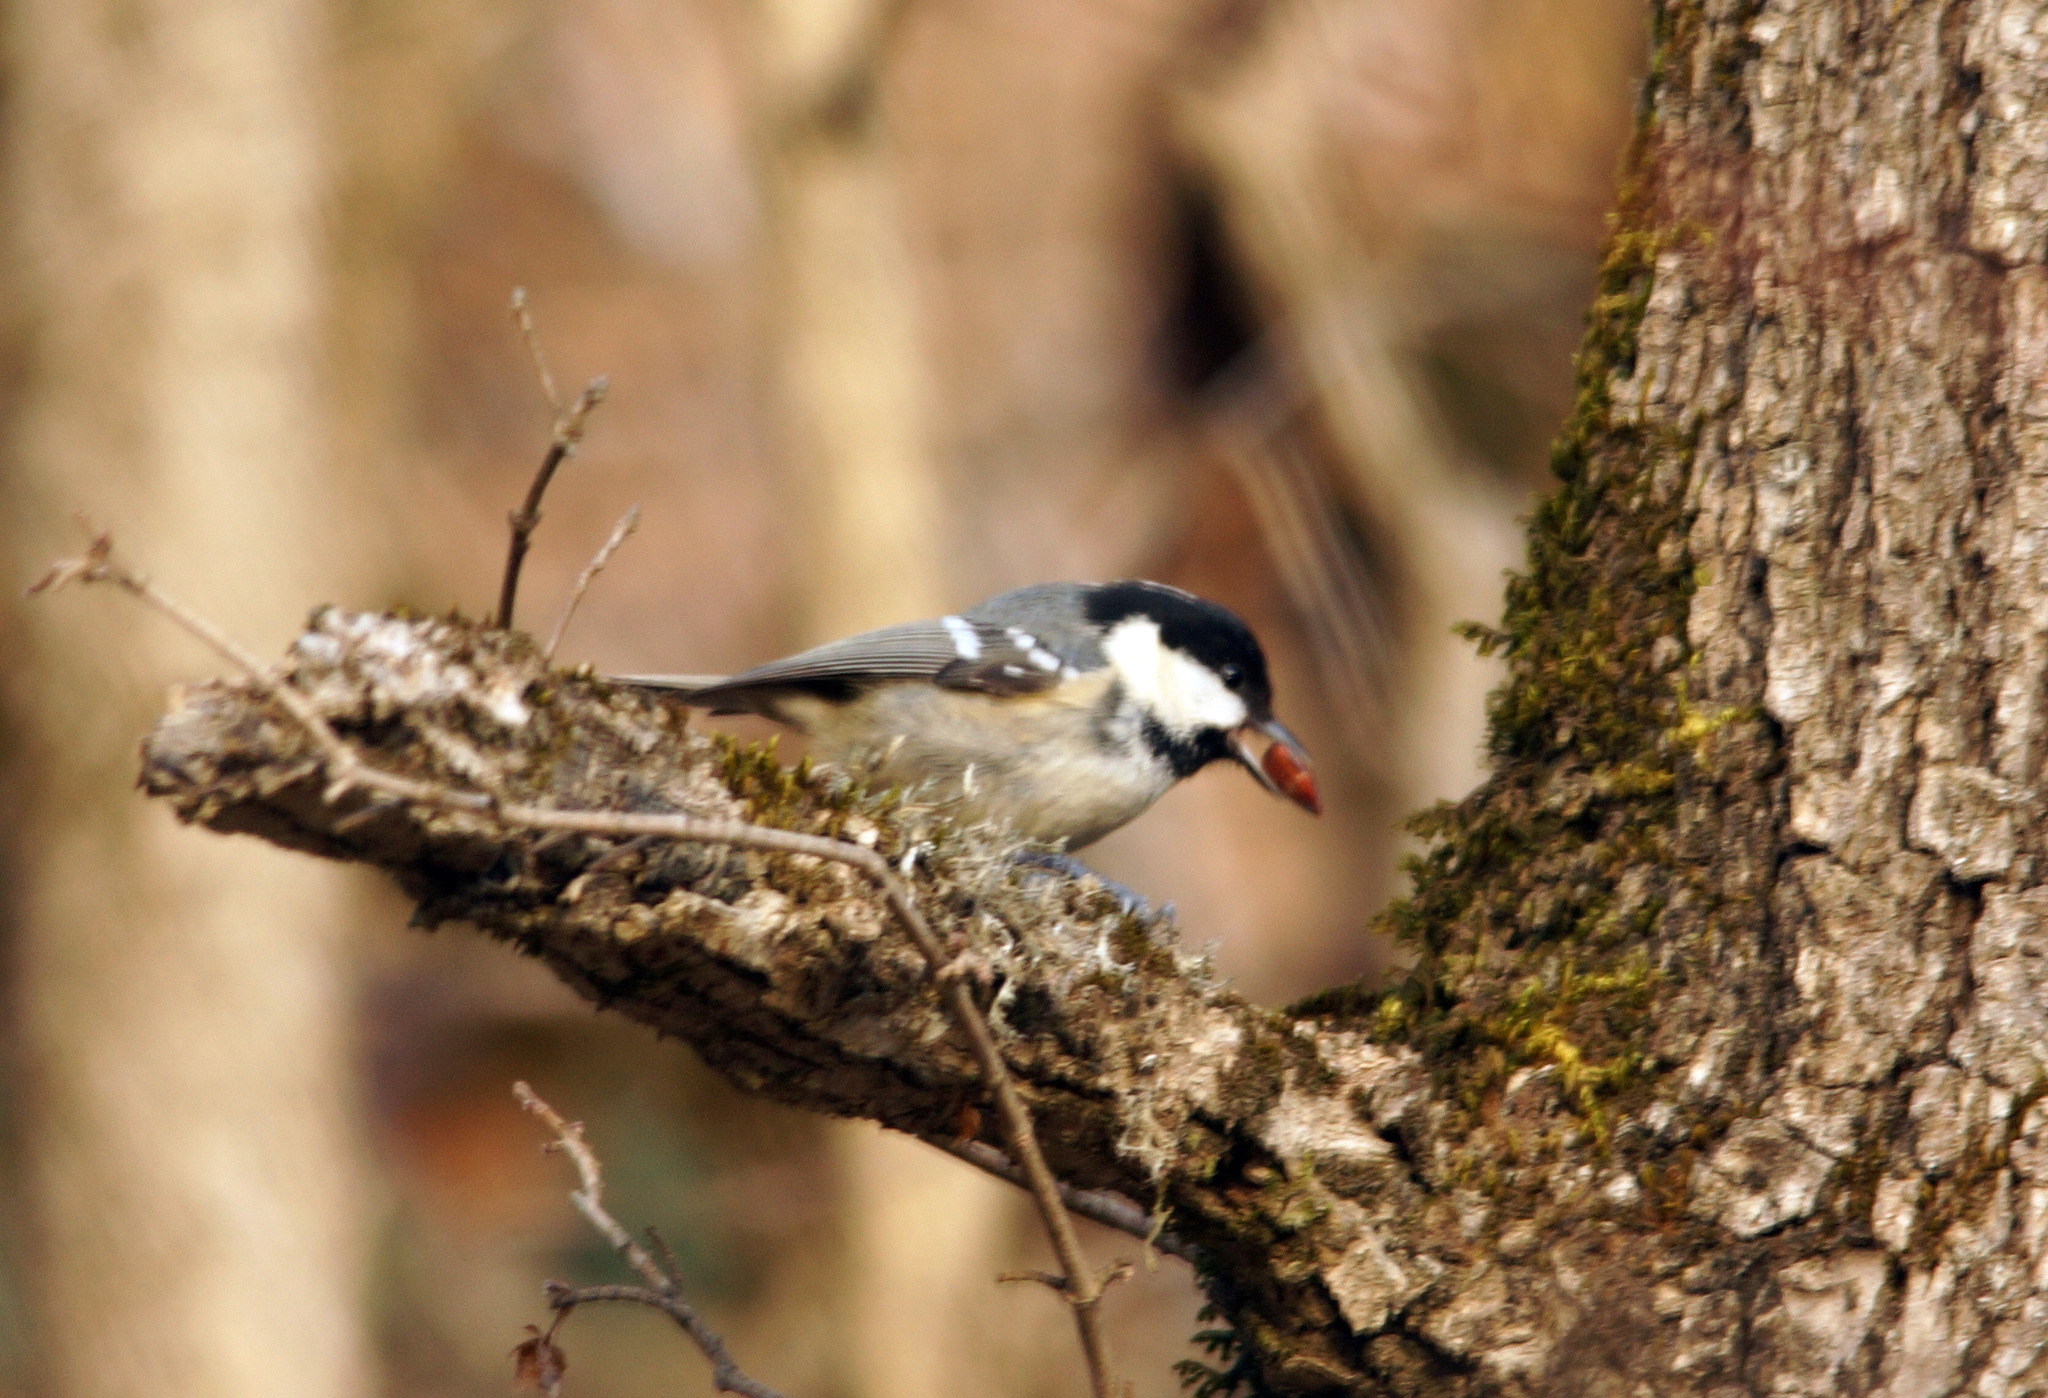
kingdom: Animalia
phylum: Chordata
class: Aves
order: Passeriformes
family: Paridae
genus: Periparus
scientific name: Periparus ater
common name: Coal tit
